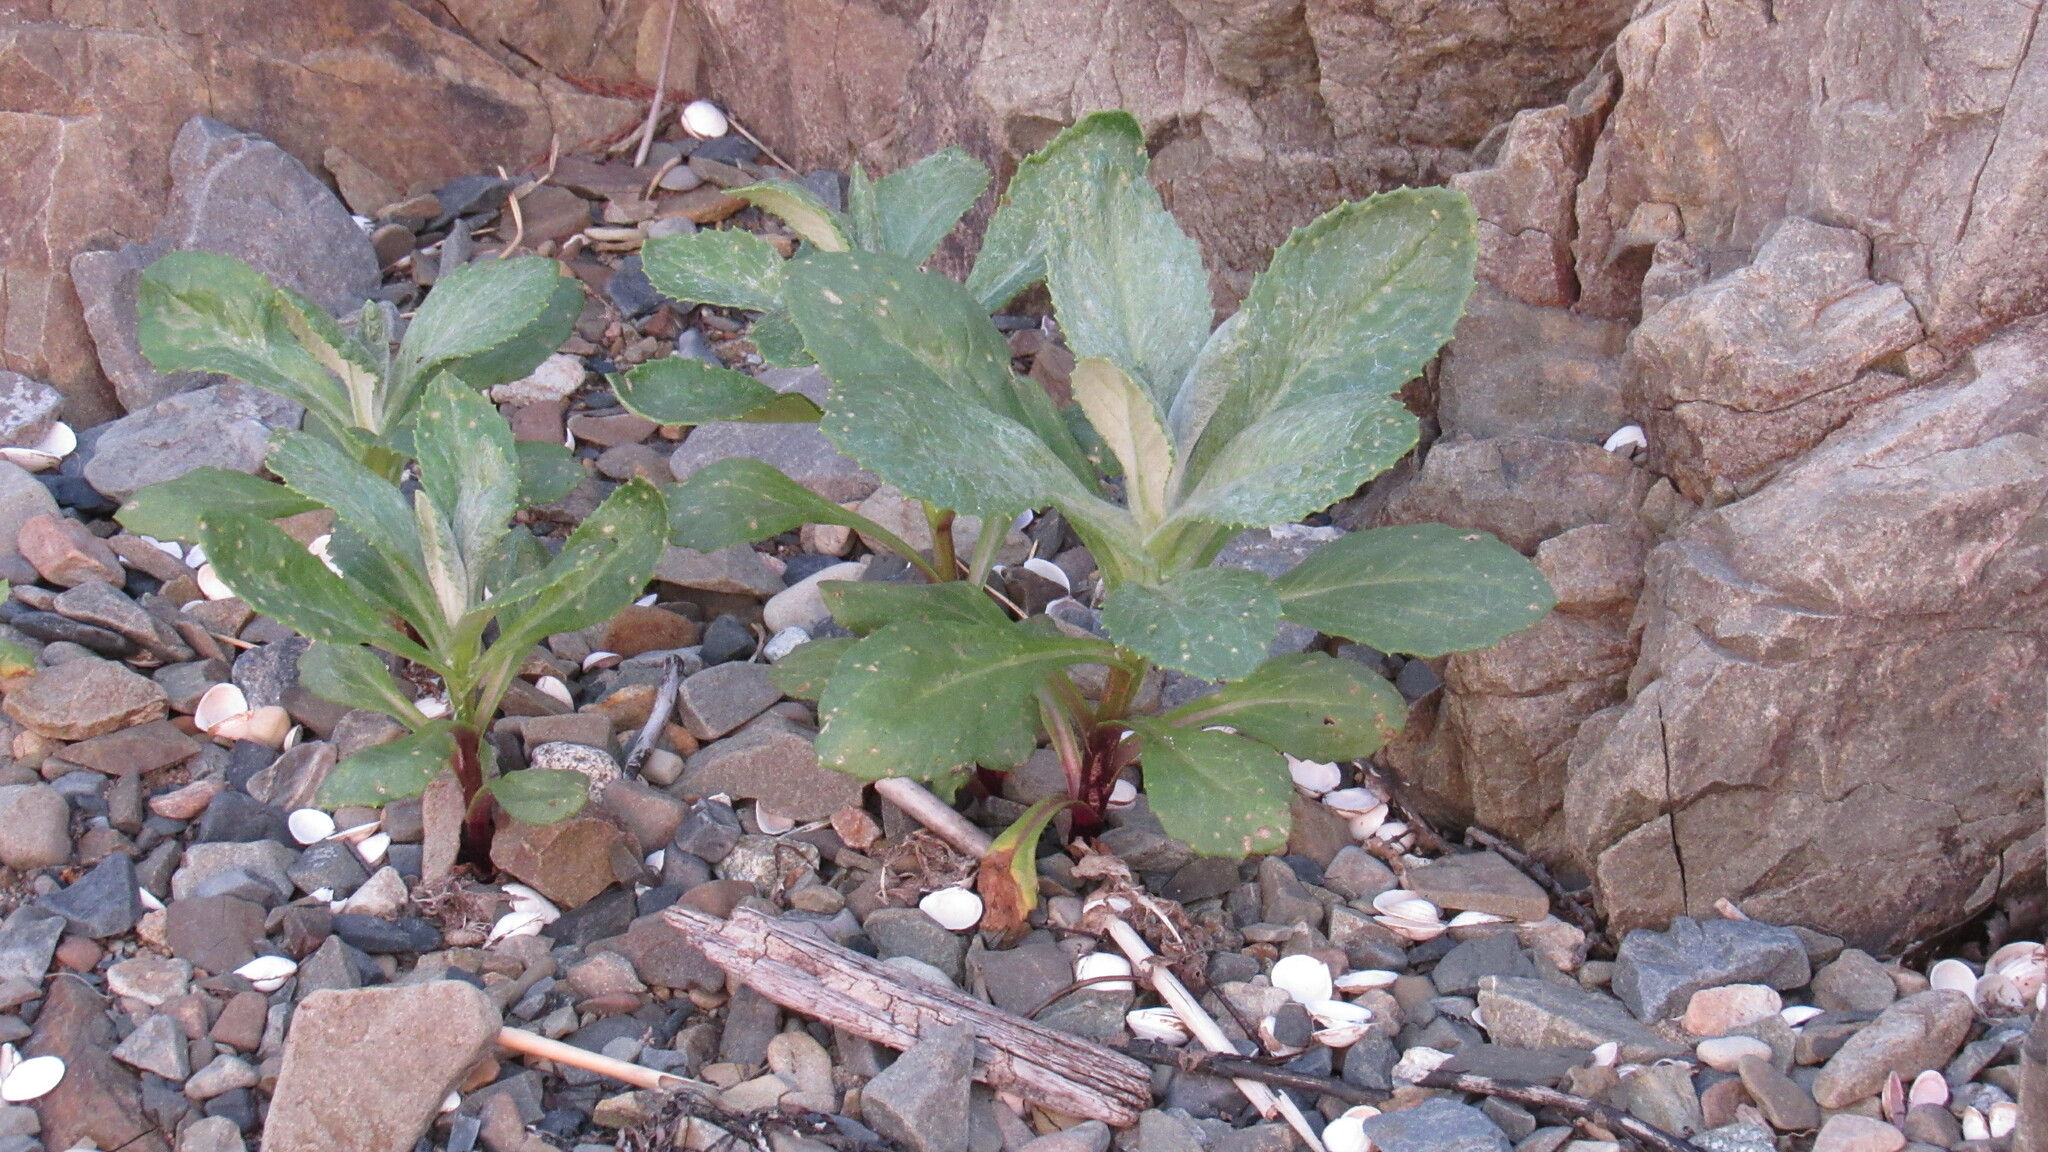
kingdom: Plantae
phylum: Tracheophyta
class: Magnoliopsida
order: Asterales
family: Asteraceae
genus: Jacobaea
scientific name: Jacobaea pseudoarnica
